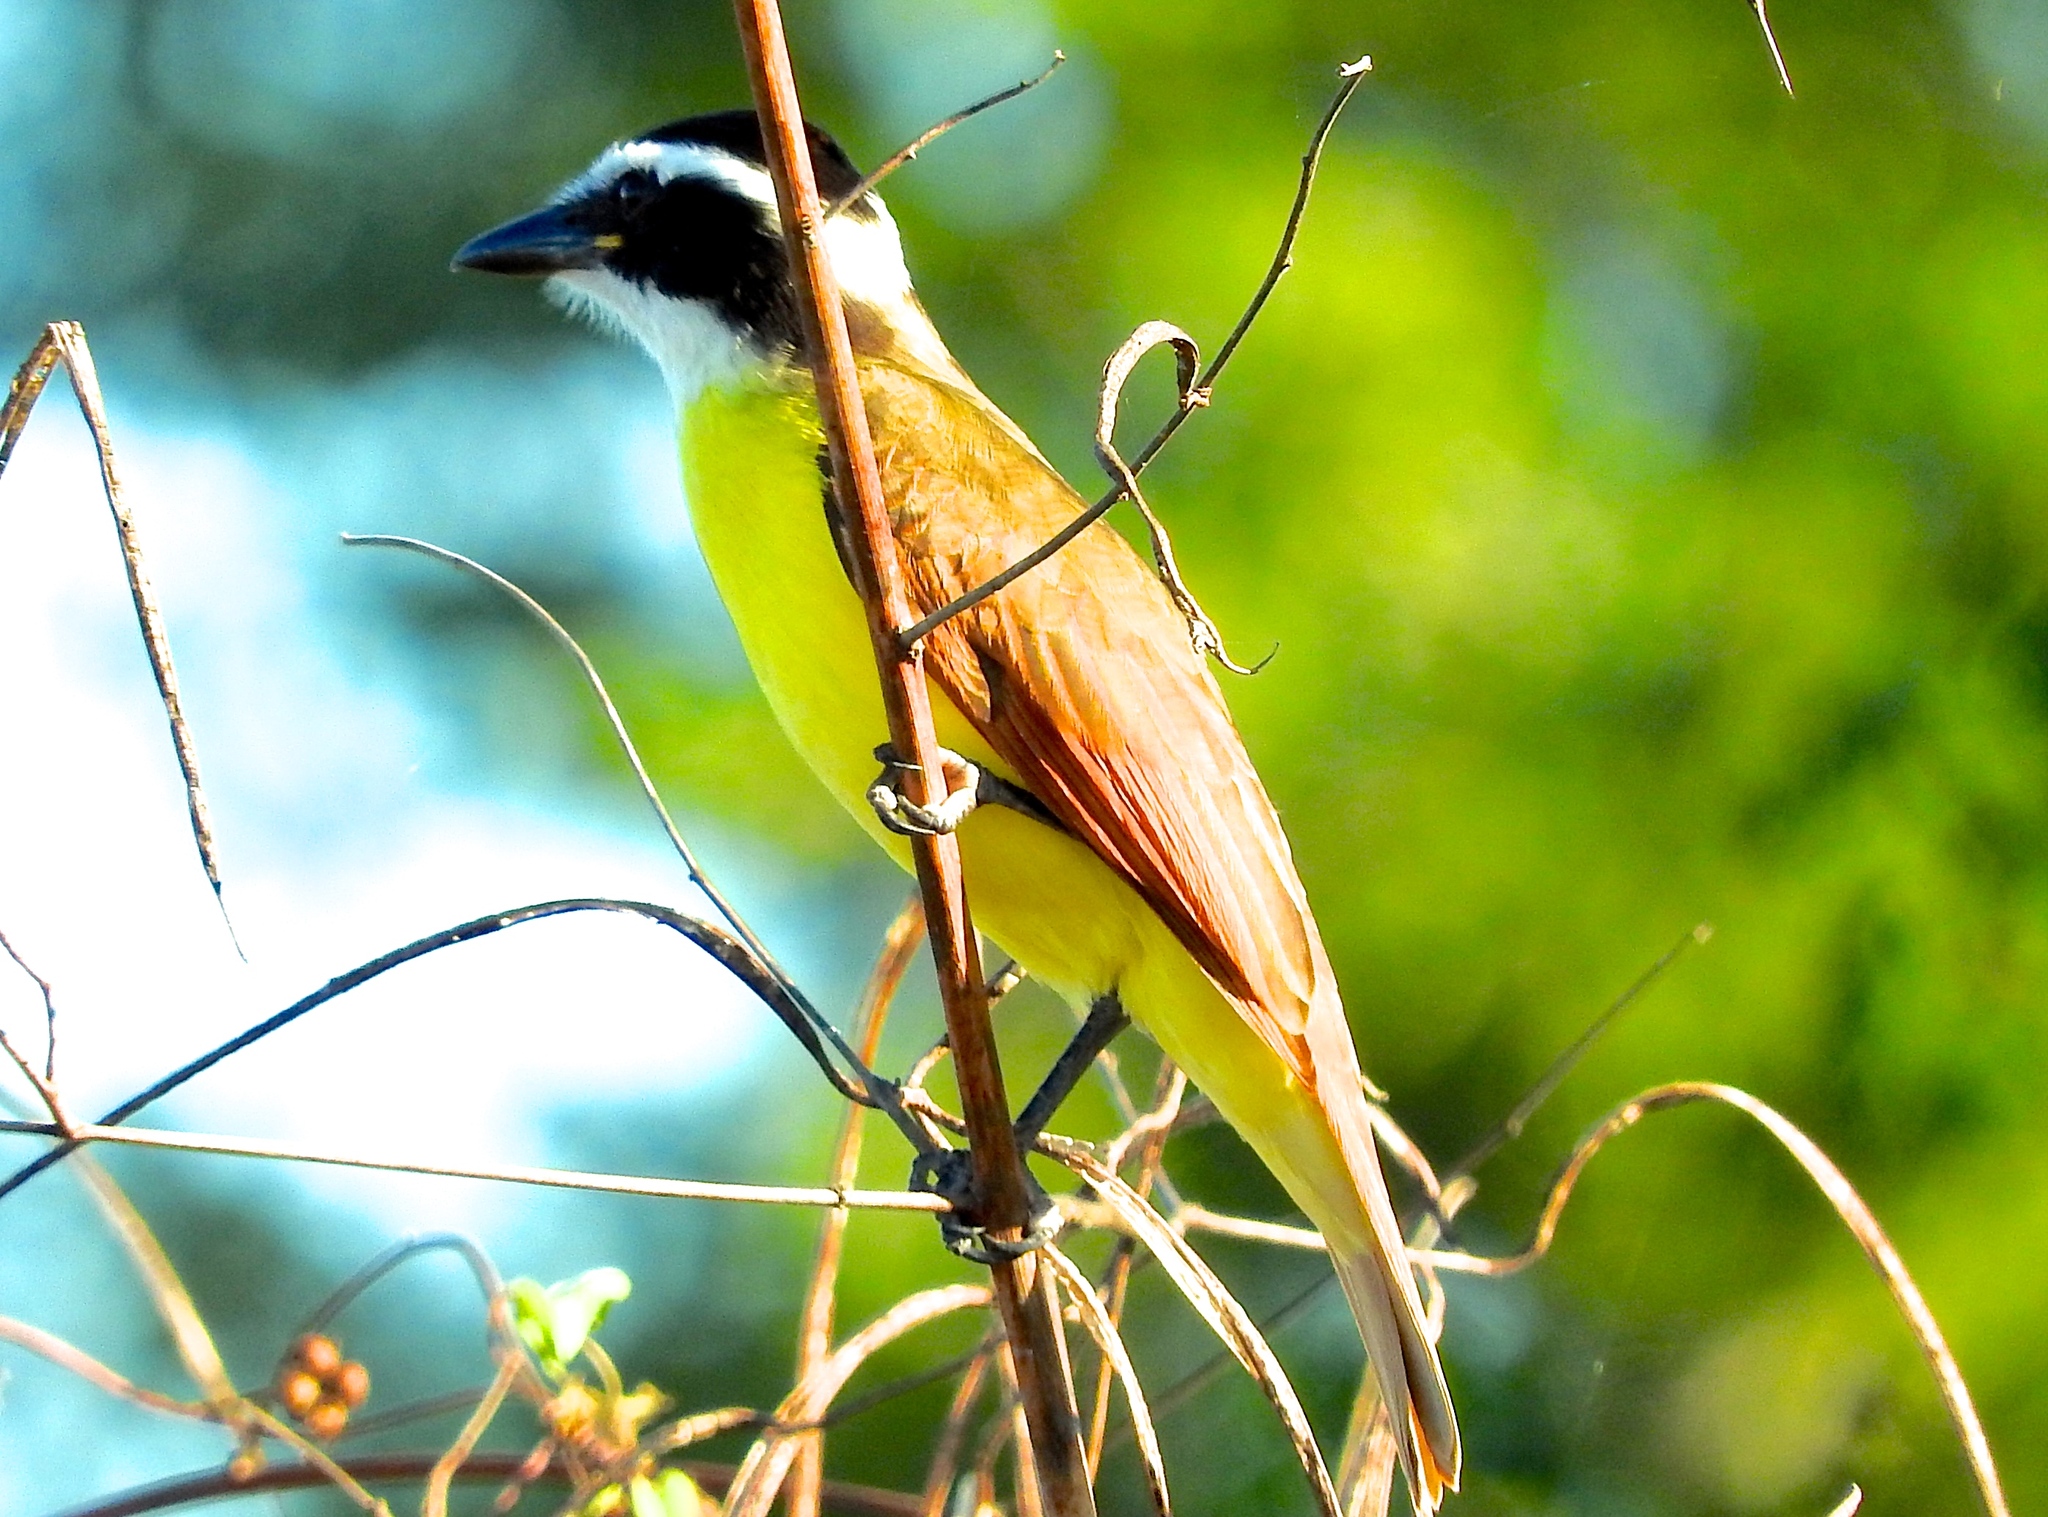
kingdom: Animalia
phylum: Chordata
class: Aves
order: Passeriformes
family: Tyrannidae
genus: Pitangus
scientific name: Pitangus sulphuratus
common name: Great kiskadee
